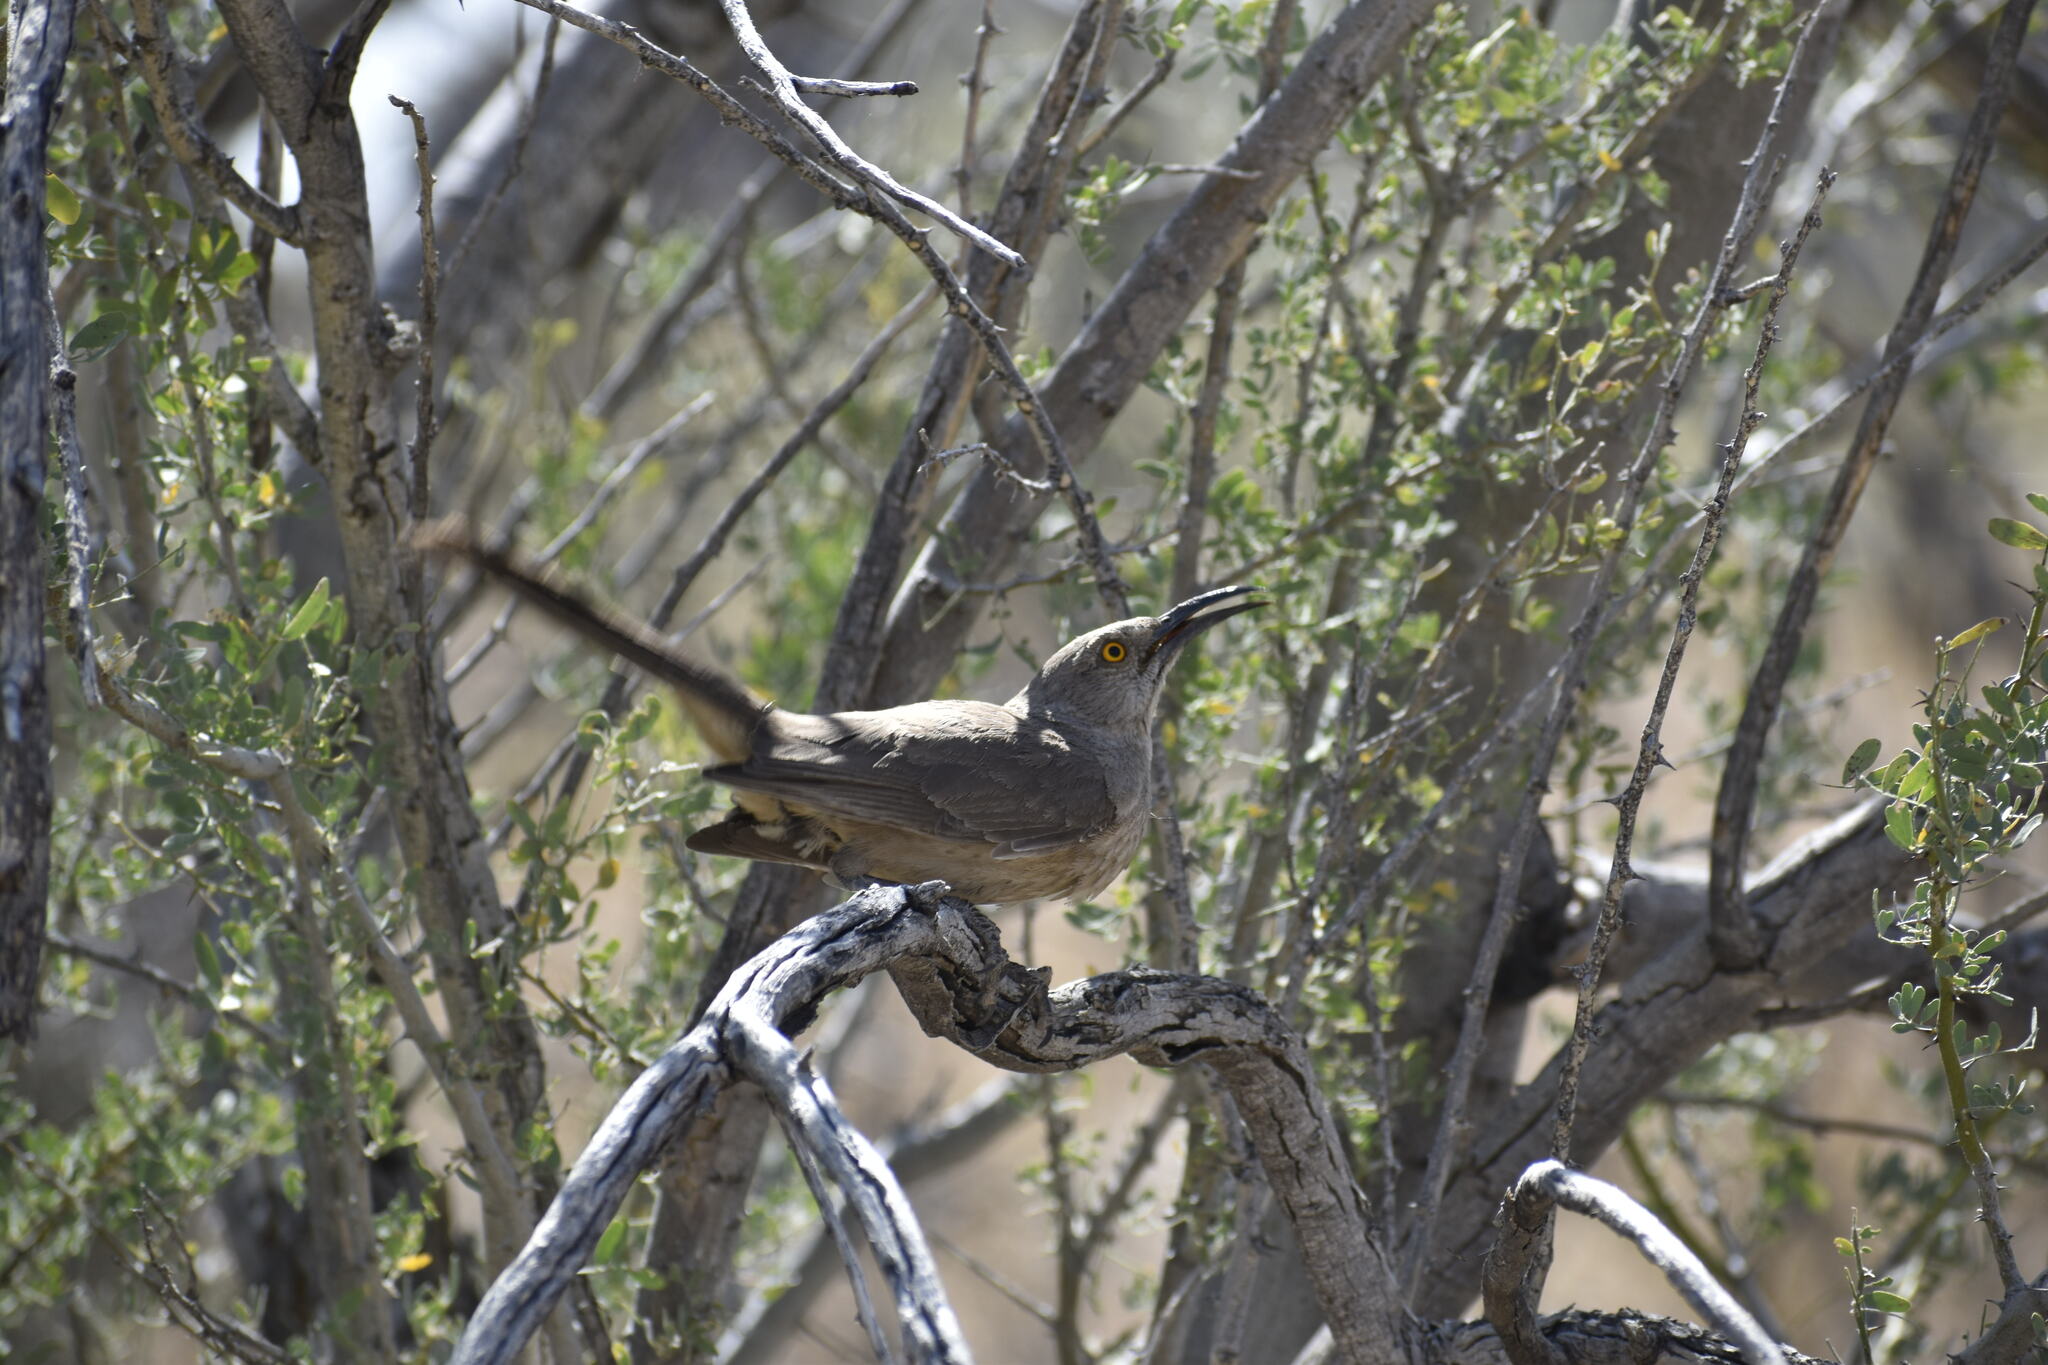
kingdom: Animalia
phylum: Chordata
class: Aves
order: Passeriformes
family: Mimidae
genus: Toxostoma
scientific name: Toxostoma curvirostre
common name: Curve-billed thrasher
